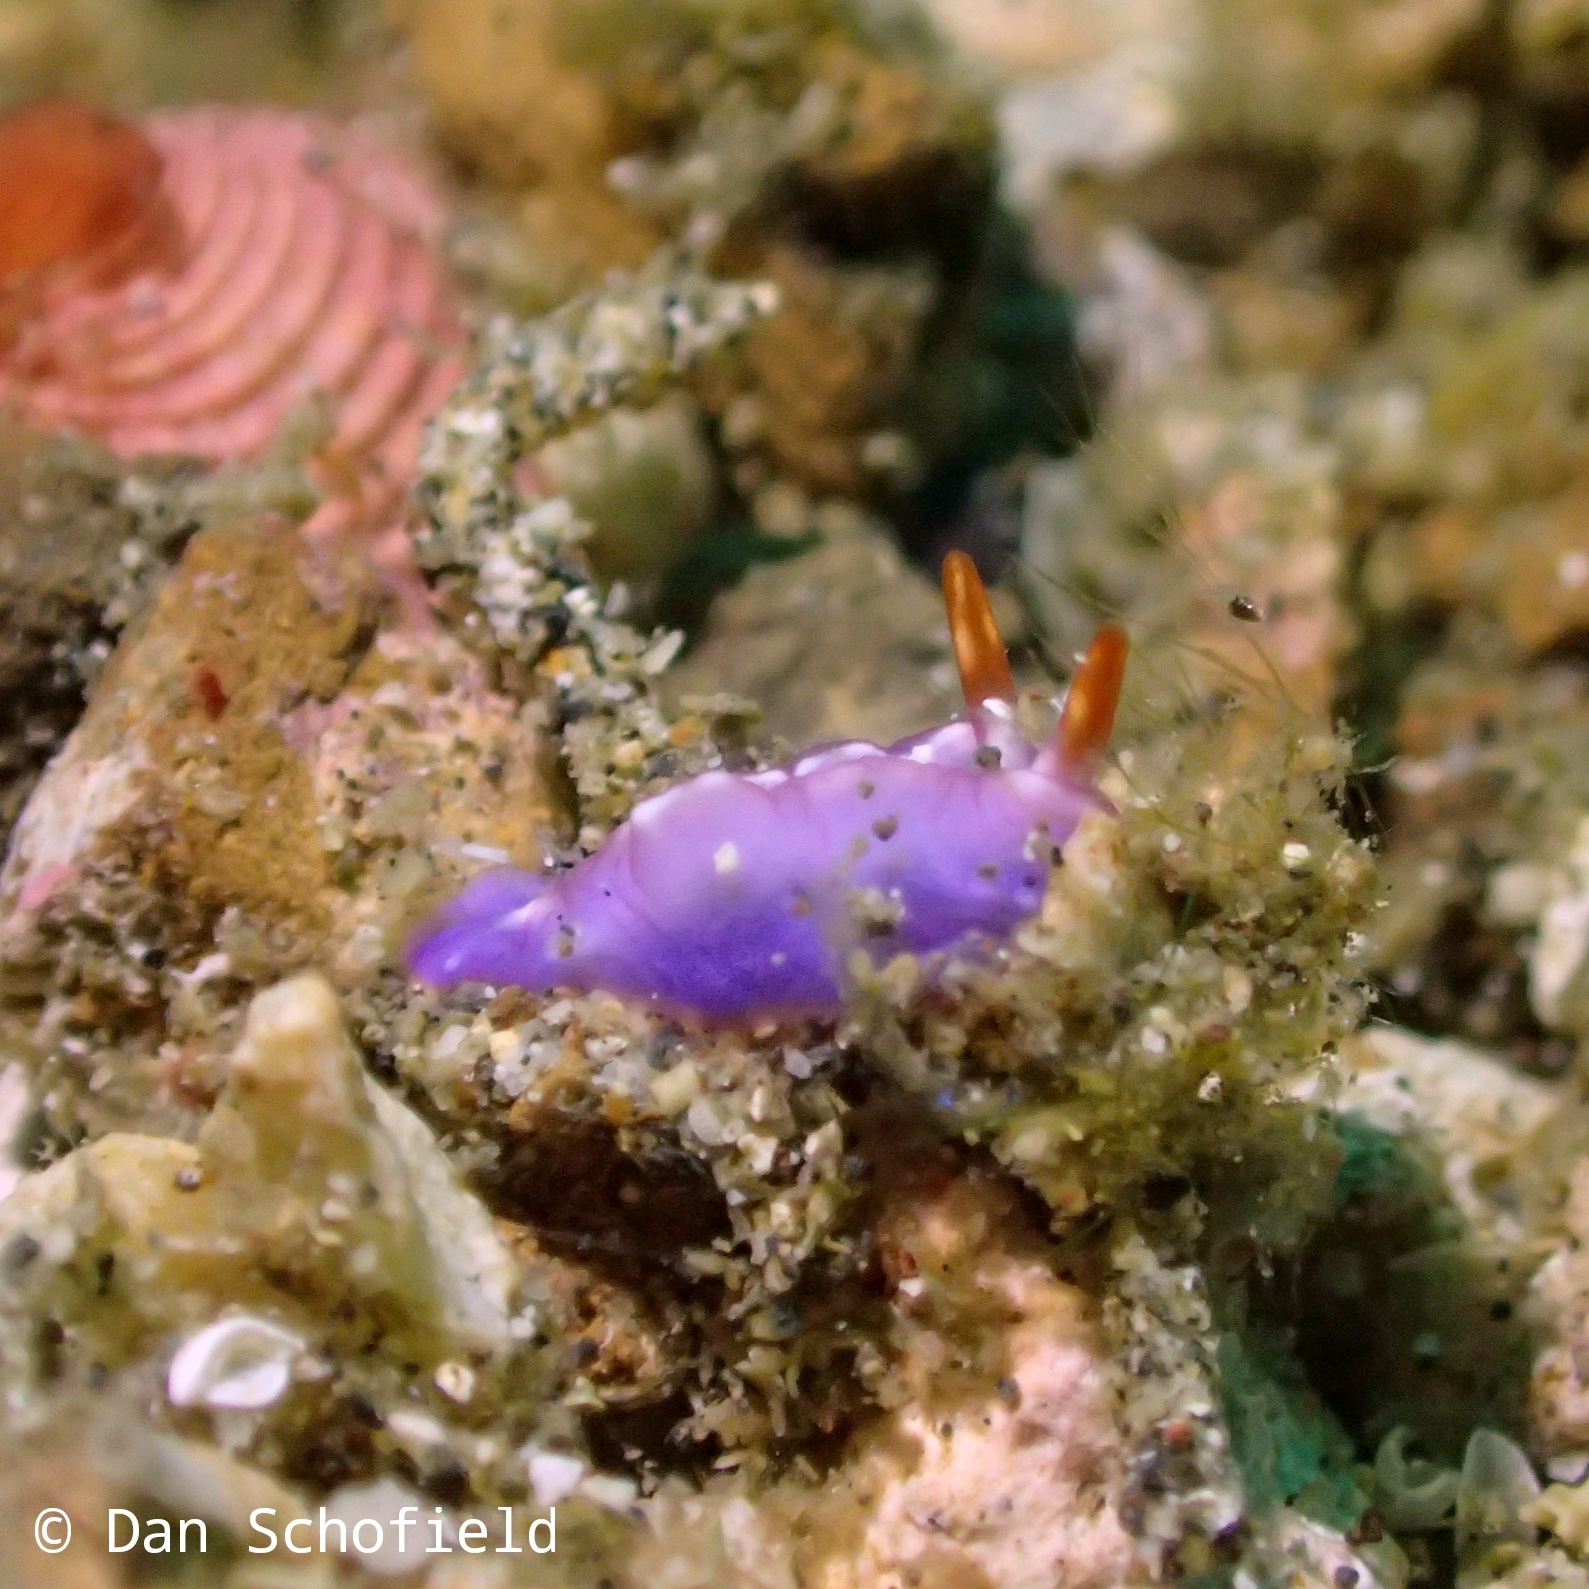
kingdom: Animalia
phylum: Mollusca
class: Gastropoda
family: Plakobranchidae
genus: Thuridilla
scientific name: Thuridilla albopustulosa
